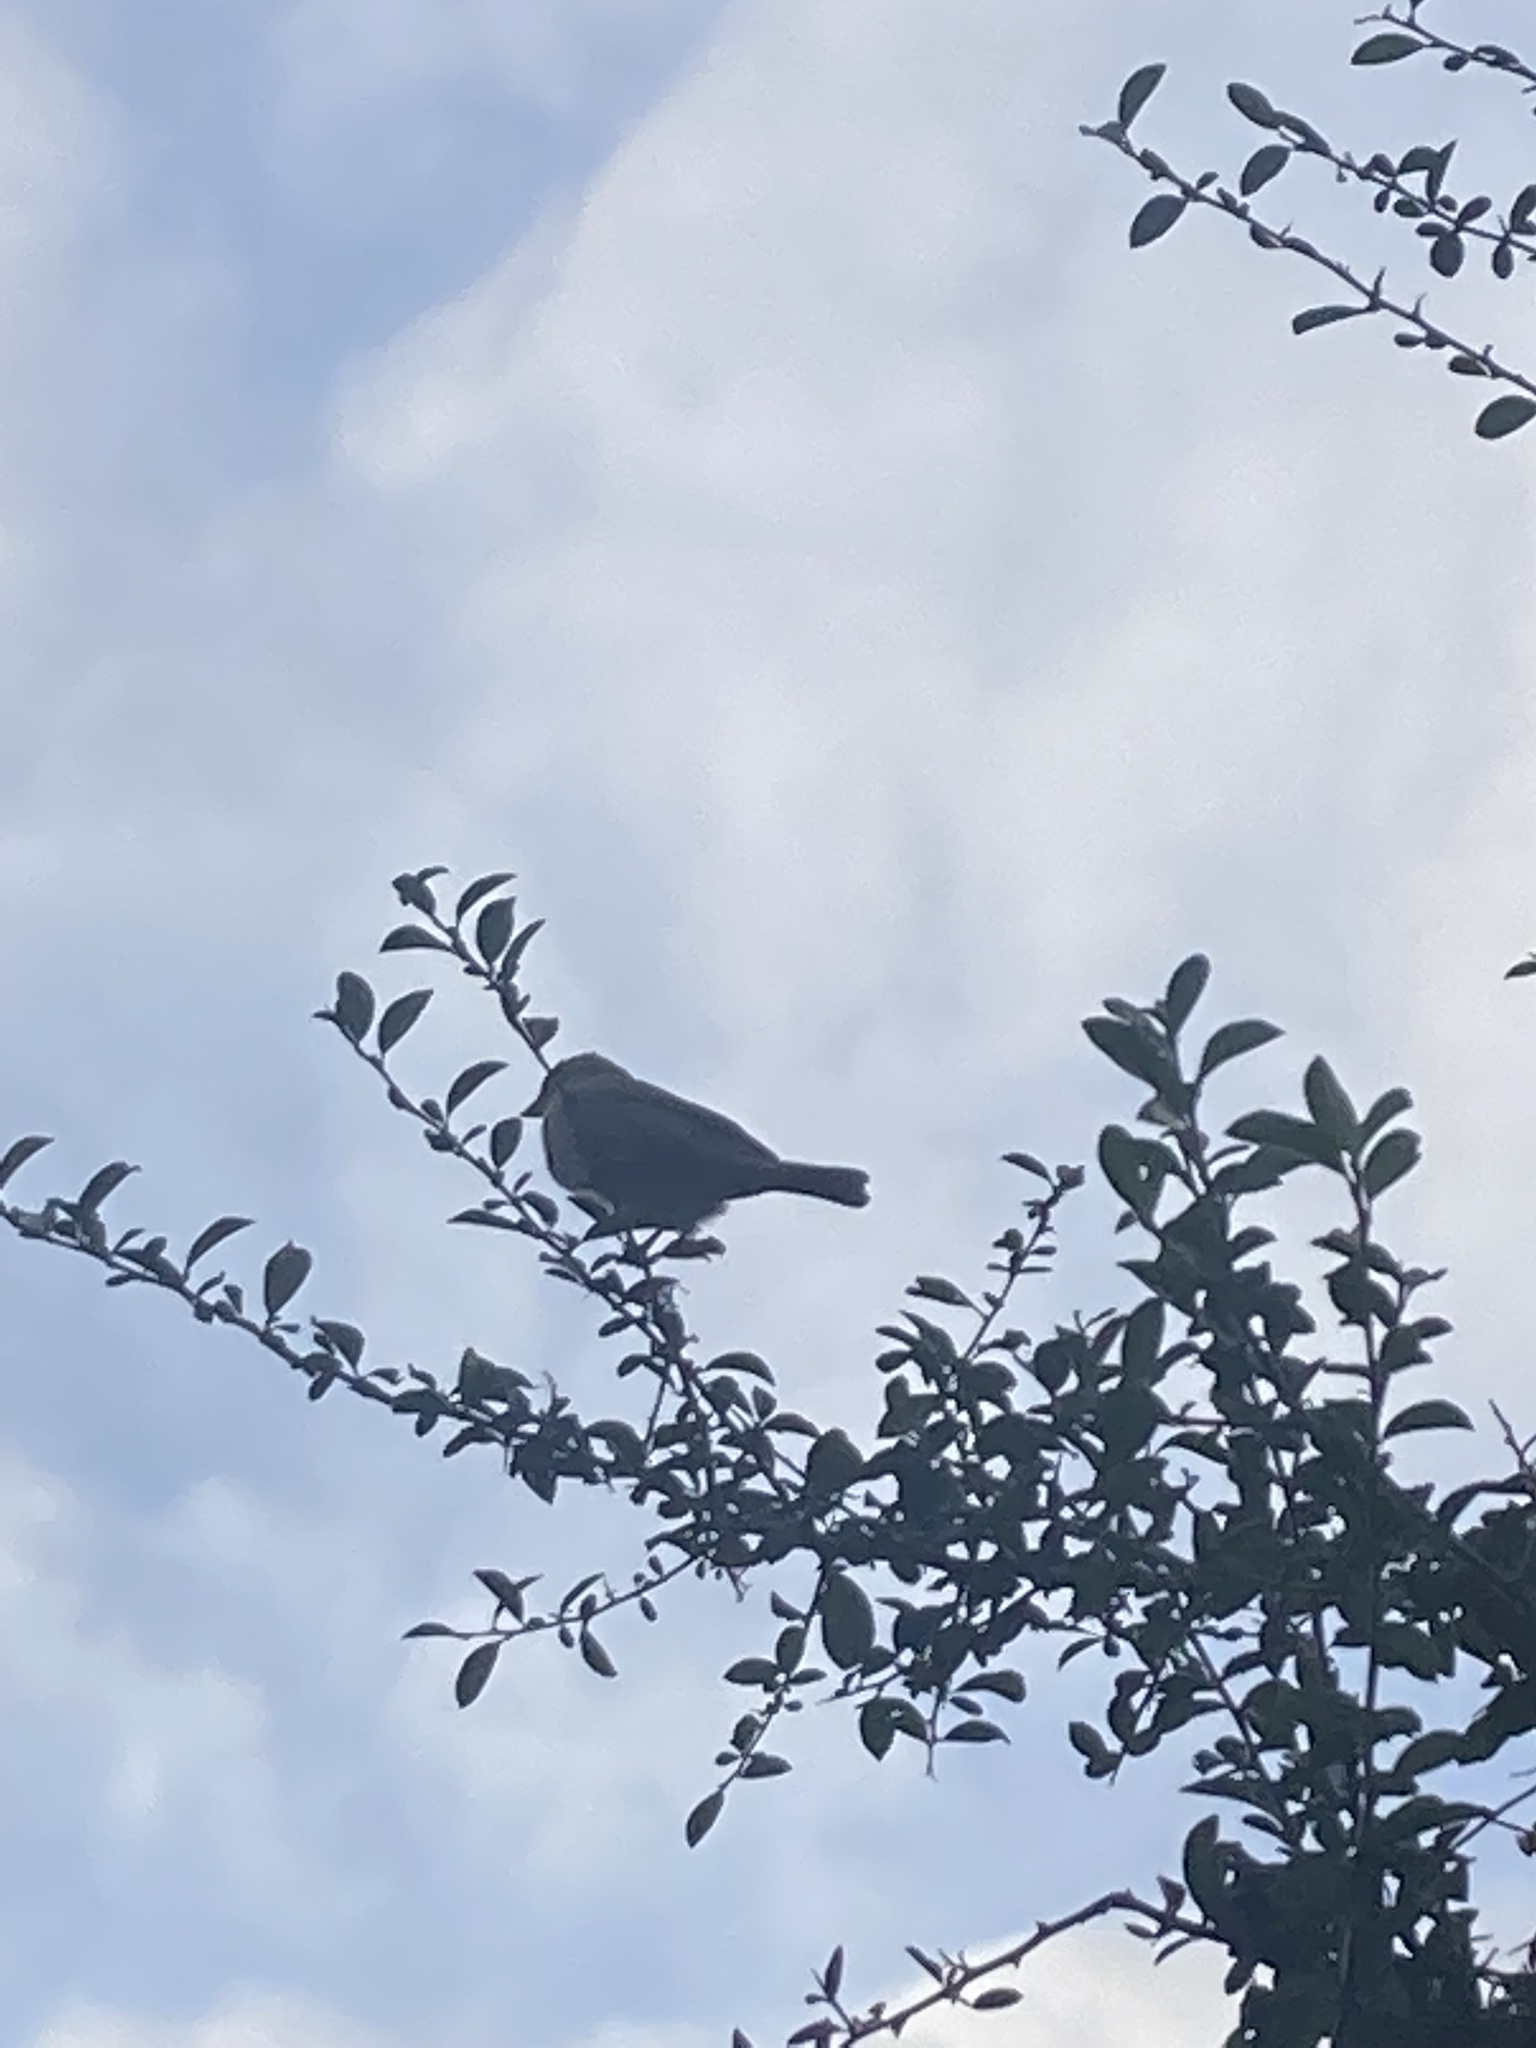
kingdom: Animalia
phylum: Chordata
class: Aves
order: Passeriformes
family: Passeridae
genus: Passer
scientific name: Passer domesticus
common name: House sparrow
